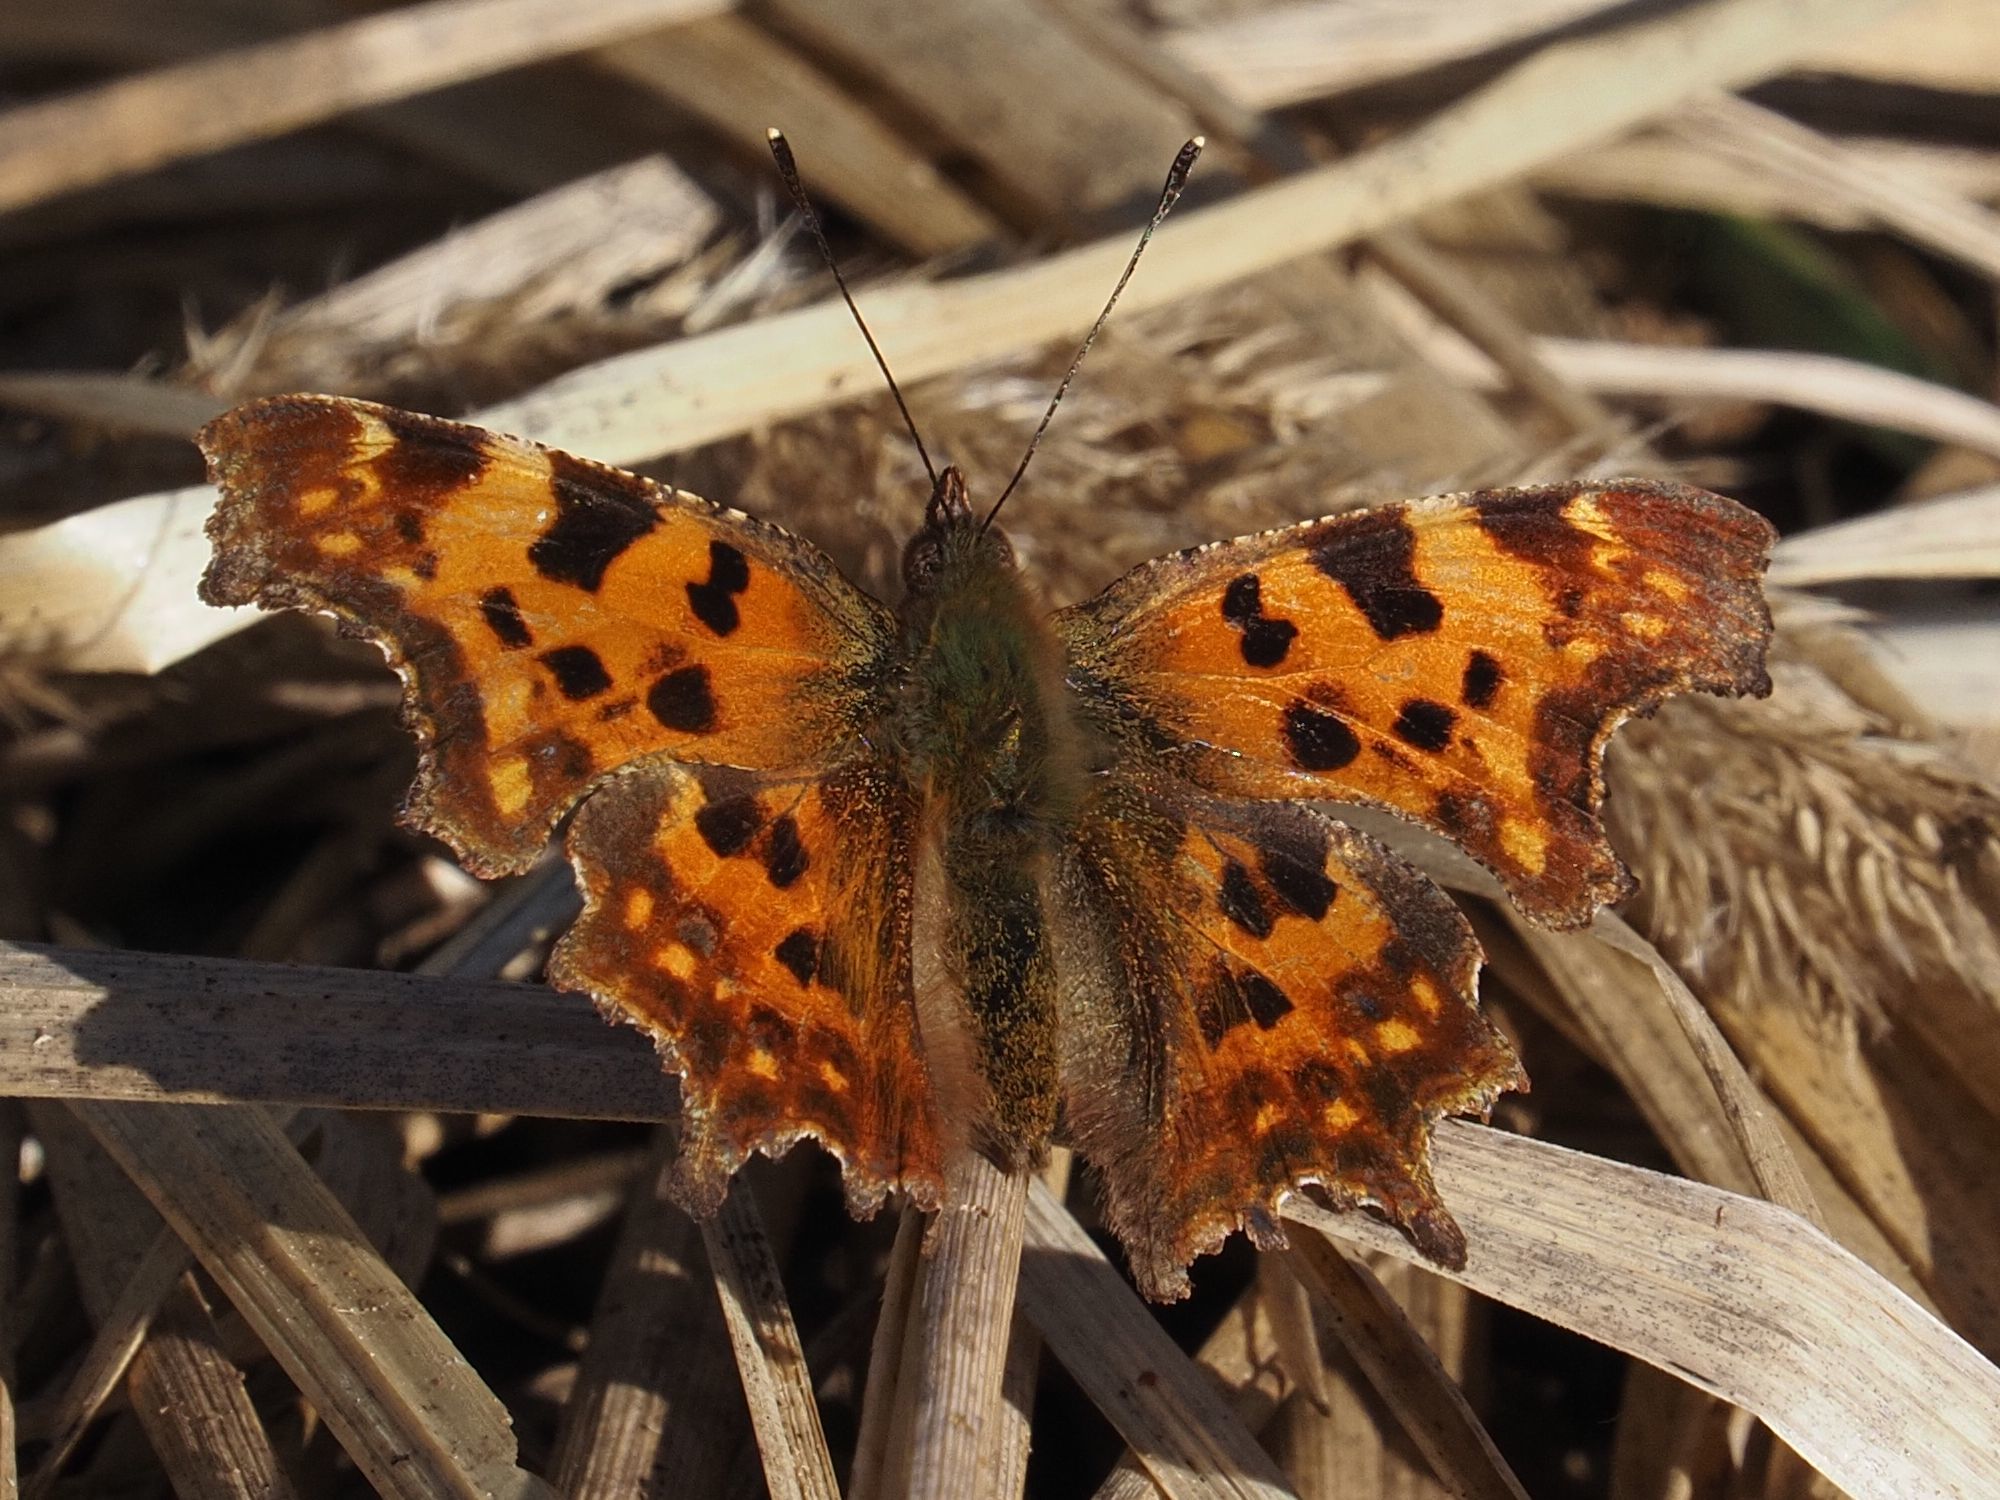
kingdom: Animalia
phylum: Arthropoda
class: Insecta
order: Lepidoptera
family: Nymphalidae
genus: Polygonia
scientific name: Polygonia c-album
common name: Comma
